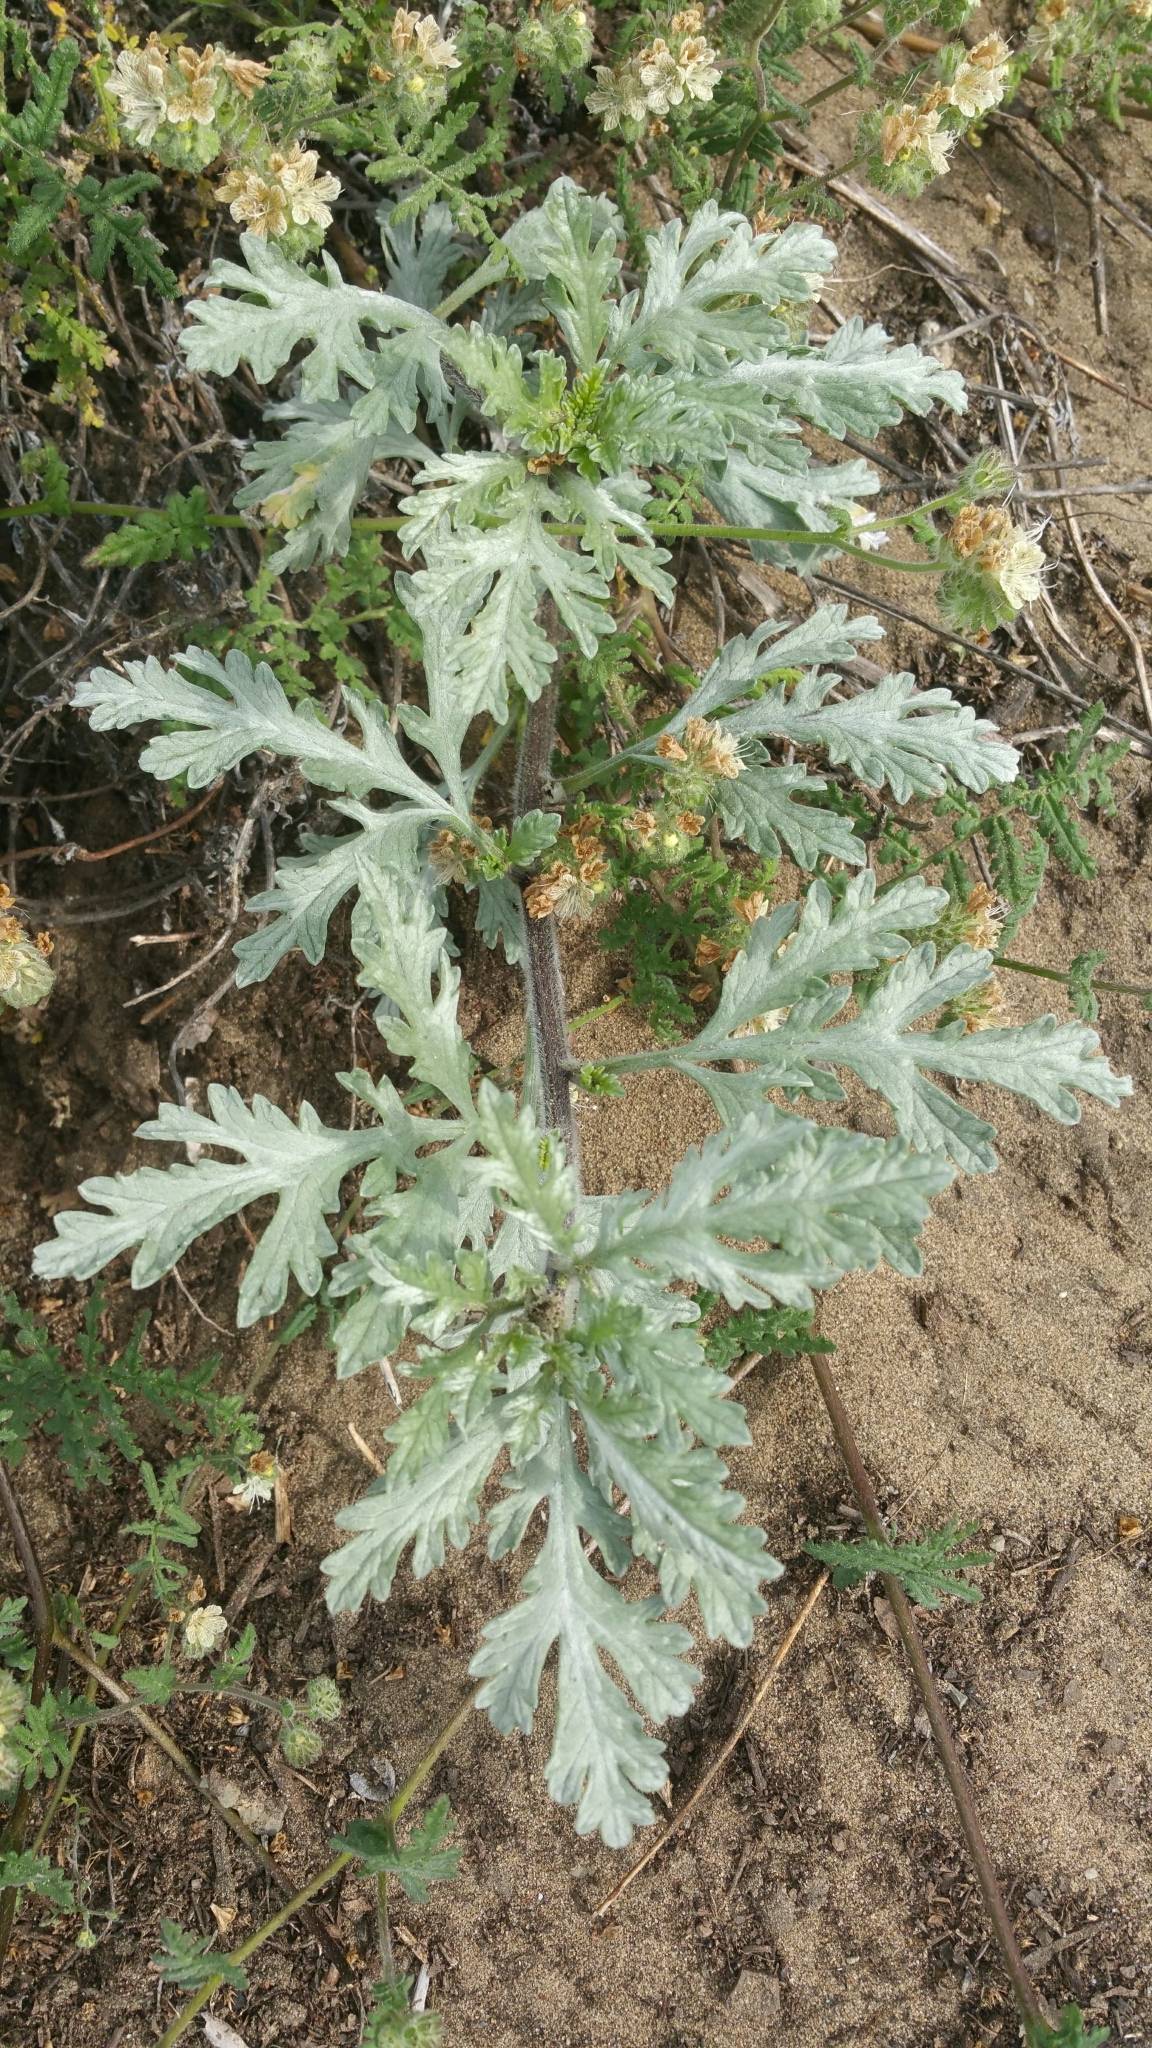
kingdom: Plantae
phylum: Tracheophyta
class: Magnoliopsida
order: Asterales
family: Asteraceae
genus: Ambrosia
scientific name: Ambrosia chamissonis
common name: Beachbur
